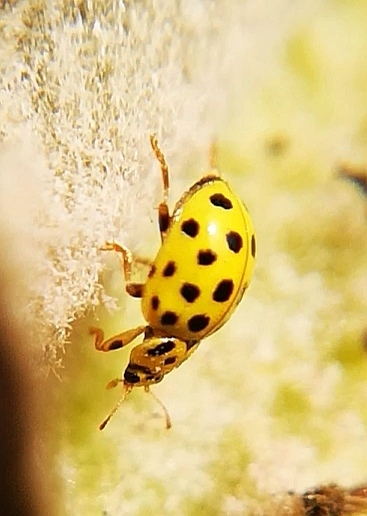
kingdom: Animalia
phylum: Arthropoda
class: Insecta
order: Coleoptera
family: Coccinellidae
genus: Psyllobora
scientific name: Psyllobora vigintiduopunctata
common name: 22-spot ladybird
